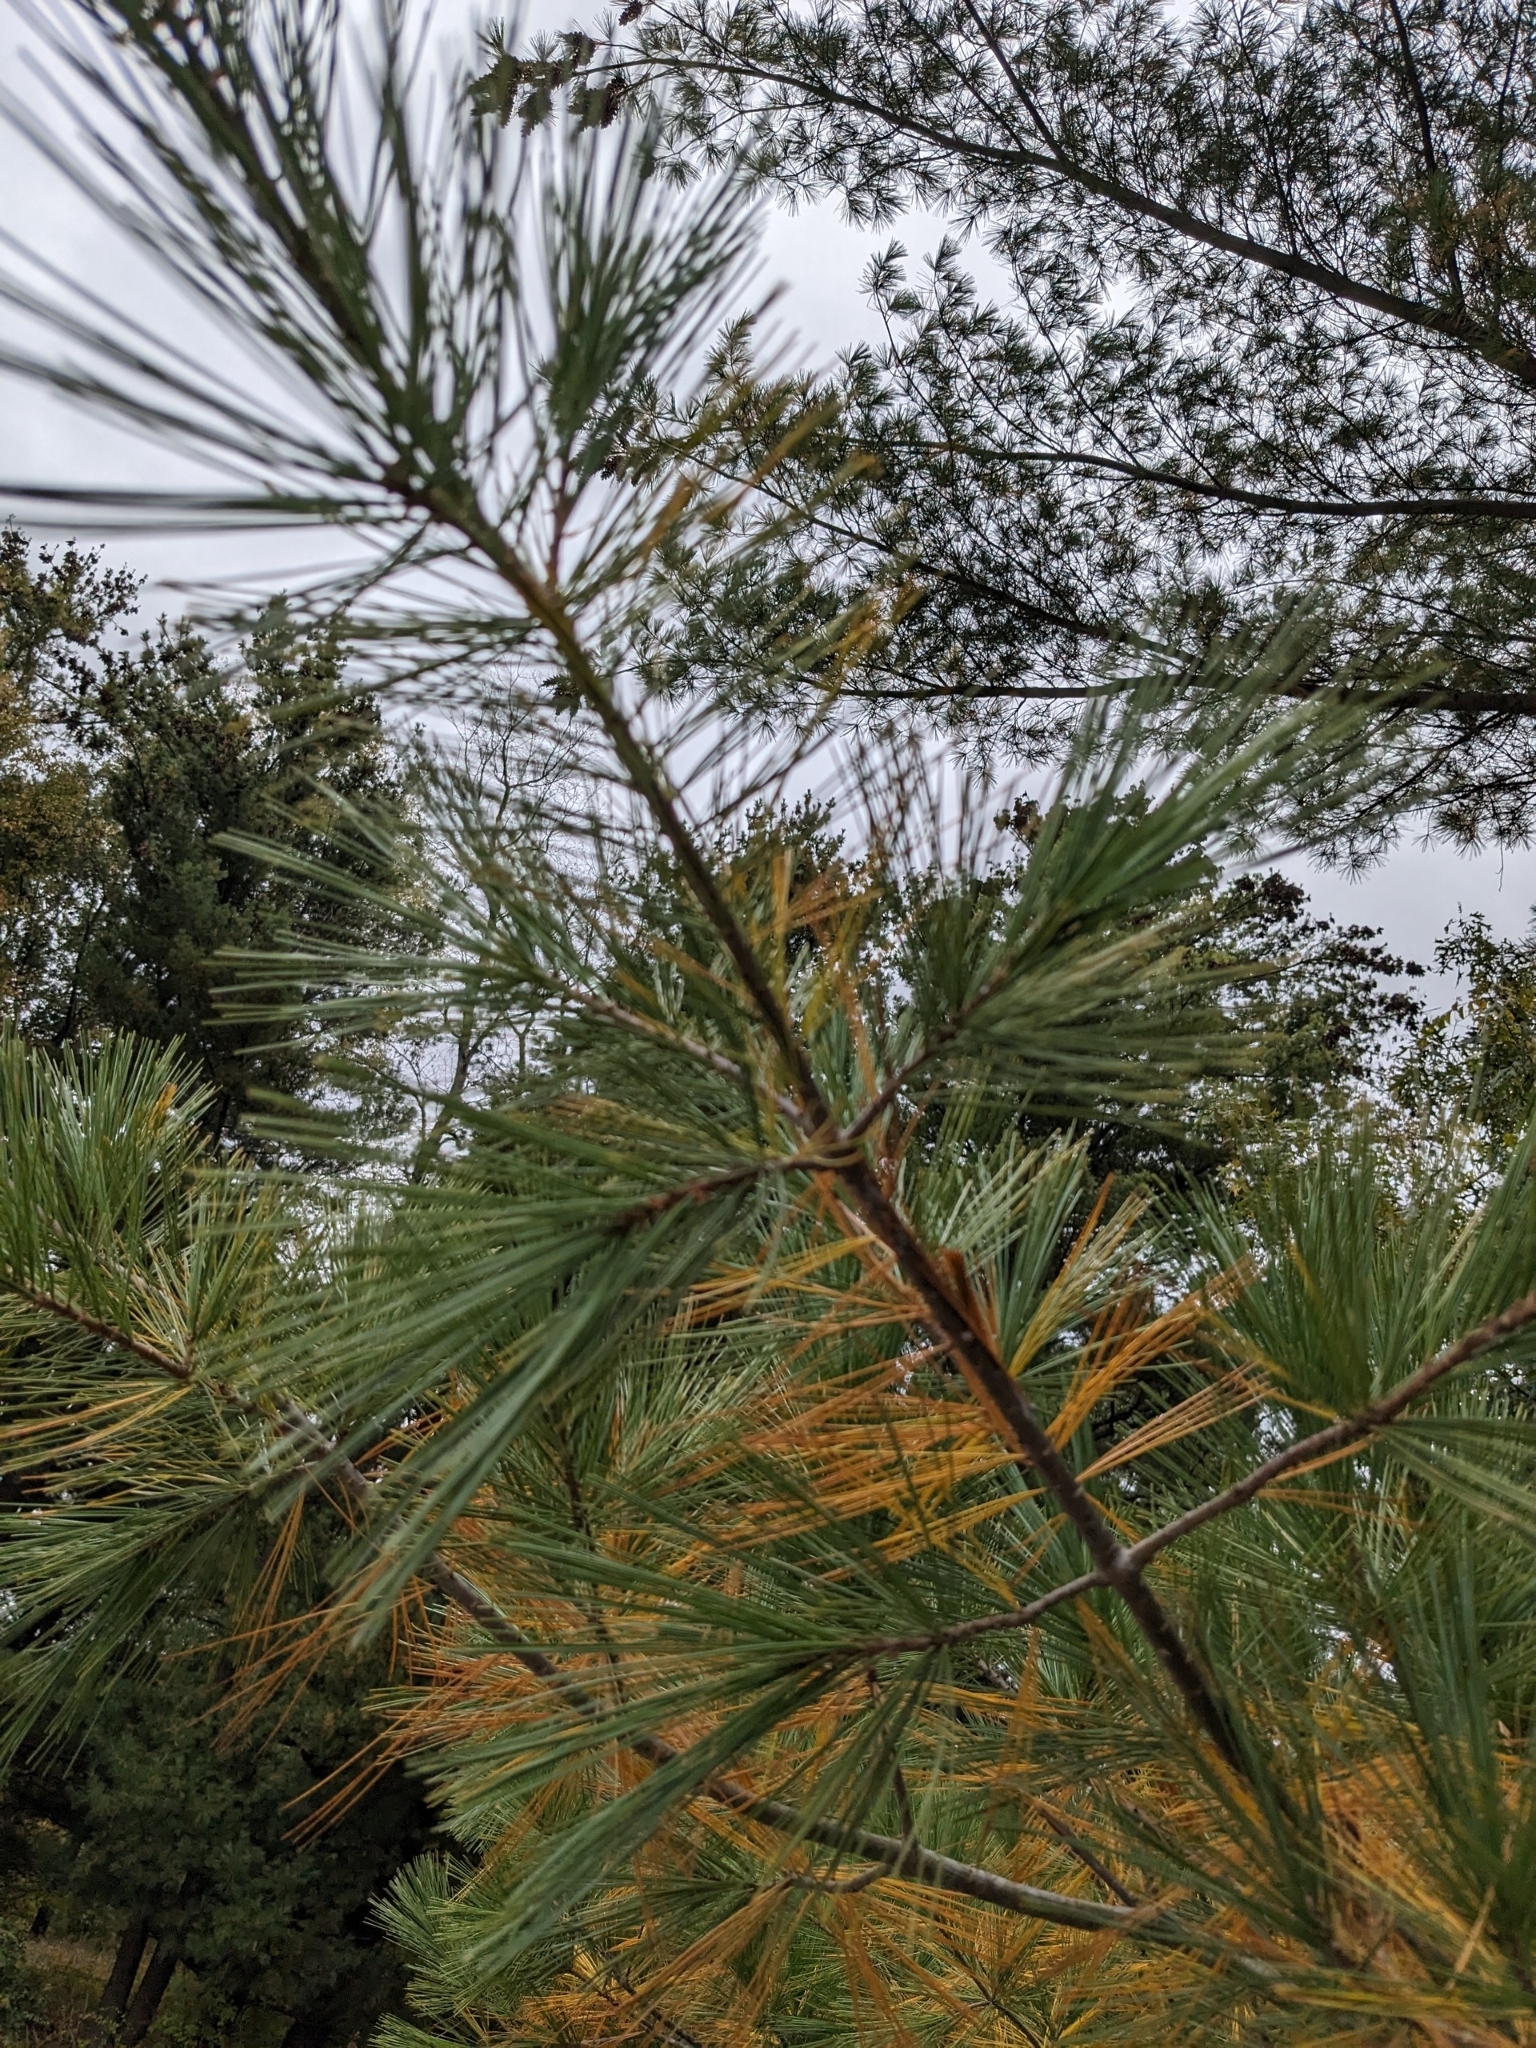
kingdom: Plantae
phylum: Tracheophyta
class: Pinopsida
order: Pinales
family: Pinaceae
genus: Pinus
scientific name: Pinus strobus
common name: Weymouth pine
